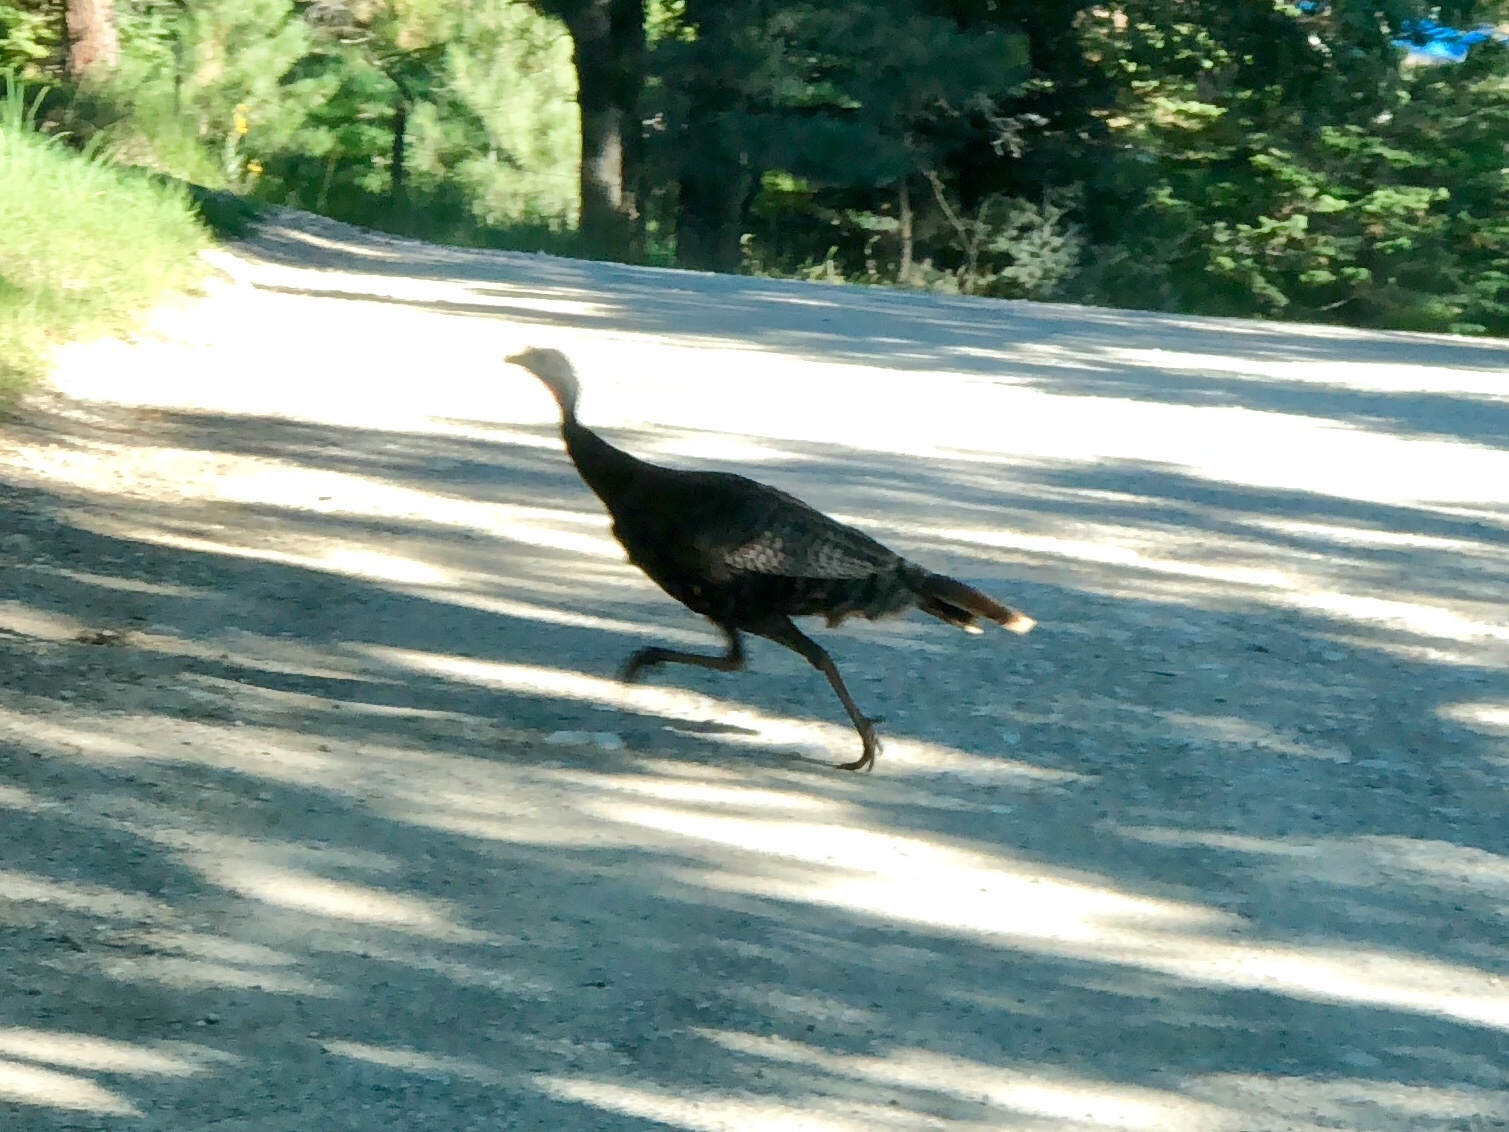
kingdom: Animalia
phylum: Chordata
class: Aves
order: Galliformes
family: Phasianidae
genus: Meleagris
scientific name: Meleagris gallopavo
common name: Wild turkey
